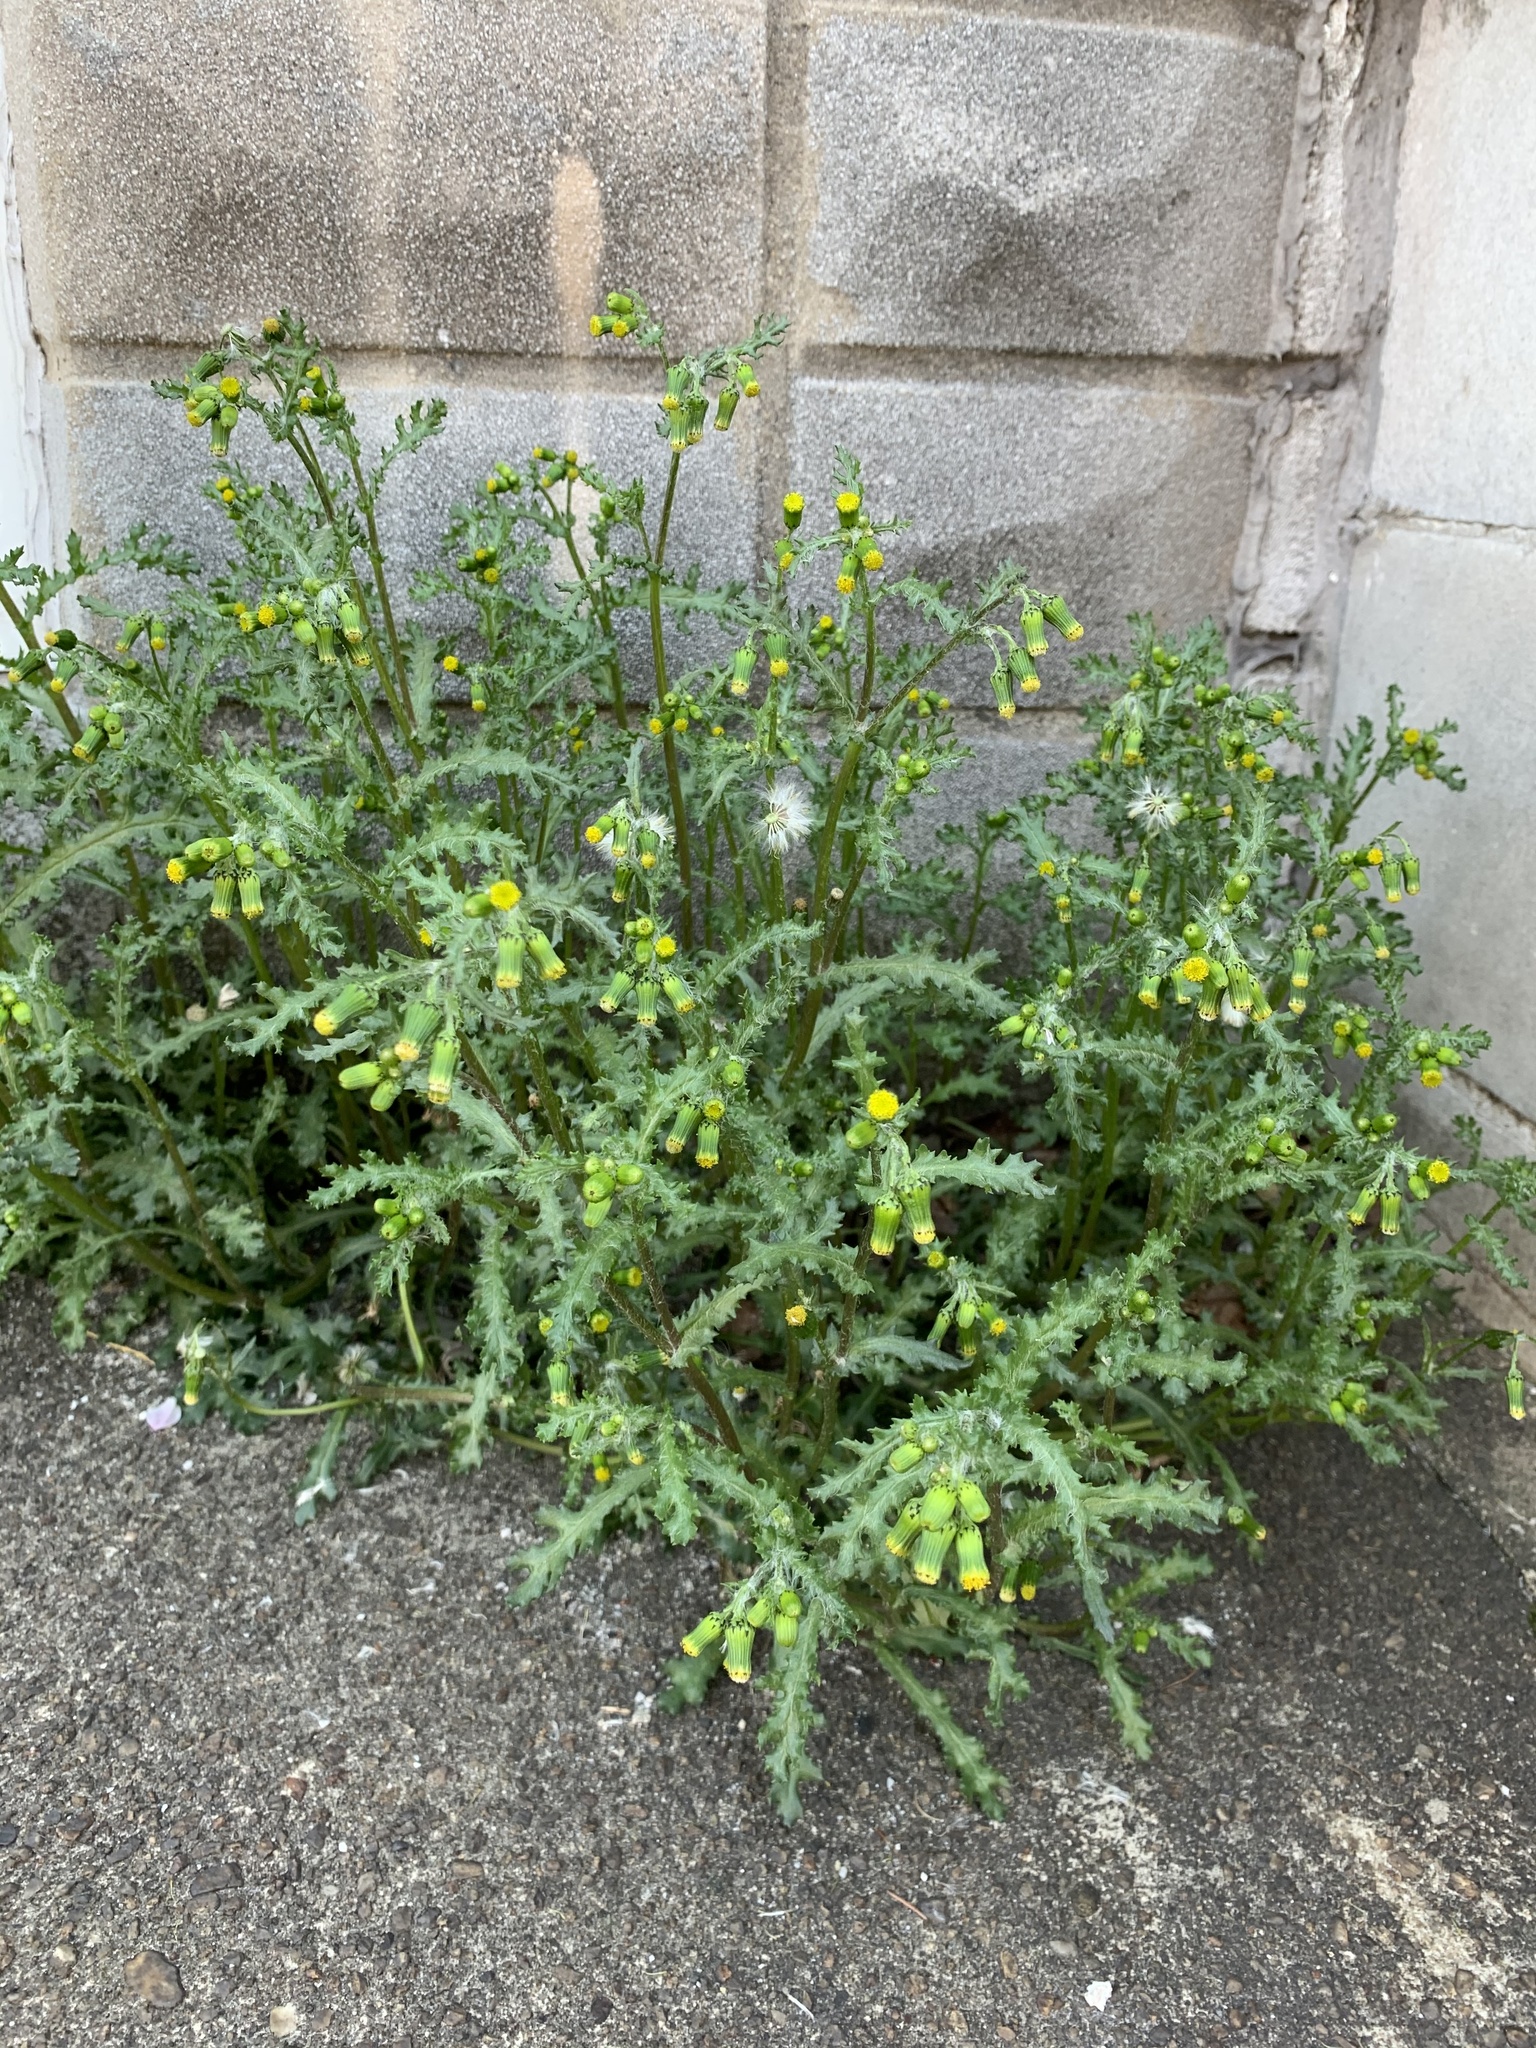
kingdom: Plantae
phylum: Tracheophyta
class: Magnoliopsida
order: Asterales
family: Asteraceae
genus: Senecio
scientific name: Senecio vulgaris
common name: Old-man-in-the-spring
